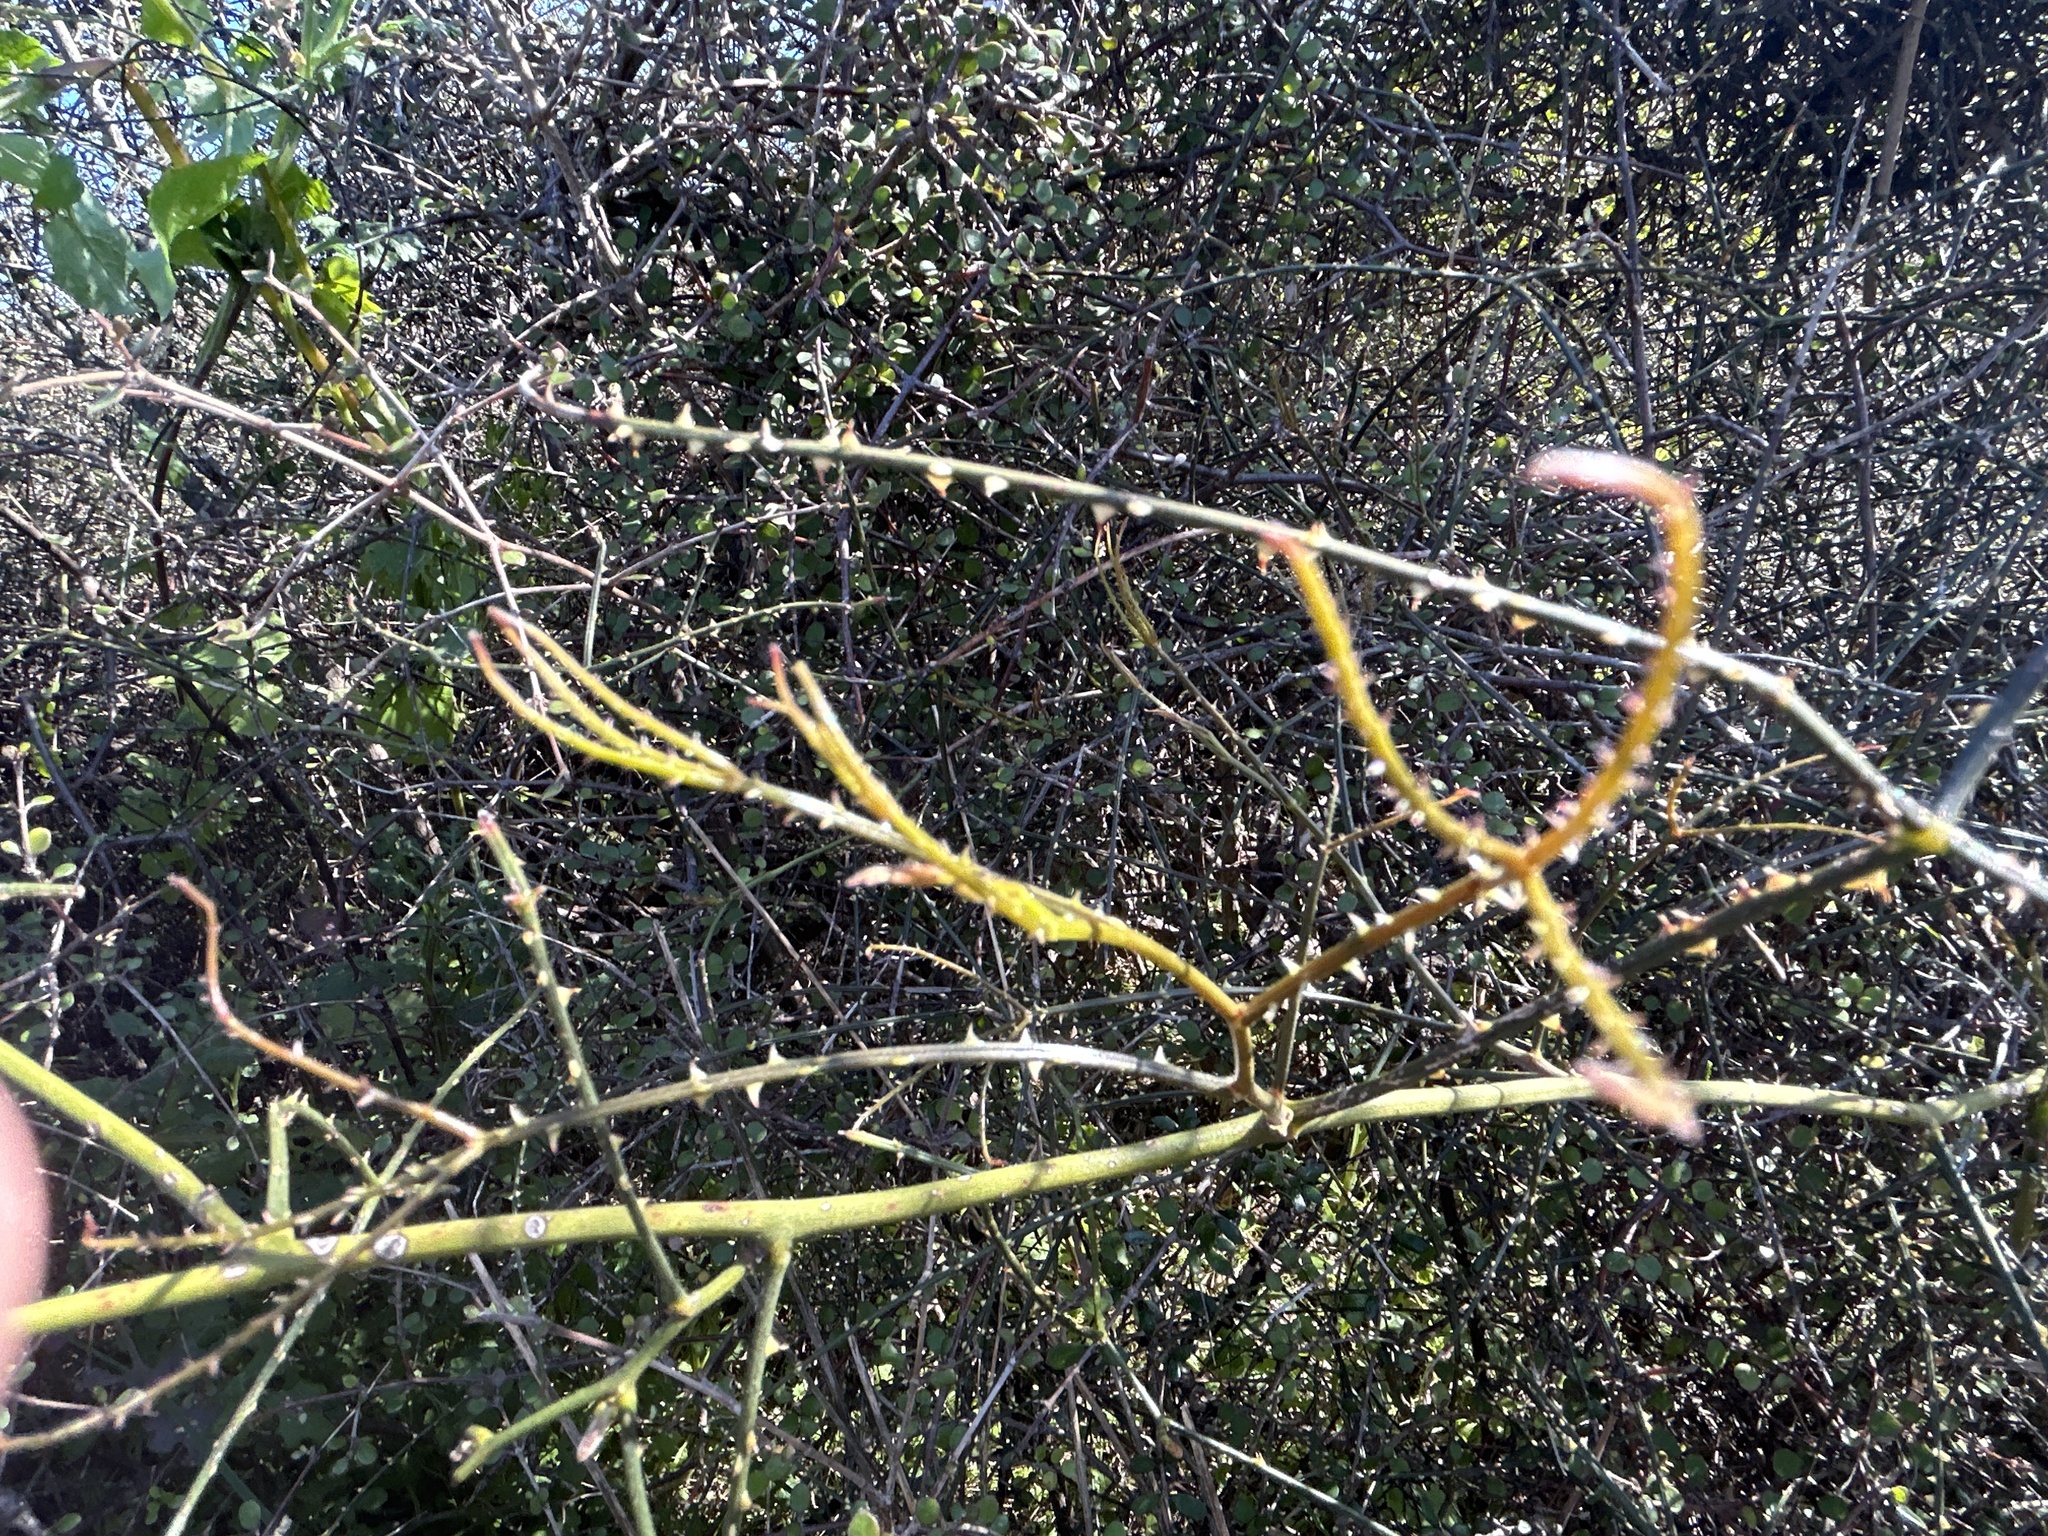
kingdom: Plantae
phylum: Tracheophyta
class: Magnoliopsida
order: Rosales
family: Rosaceae
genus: Rubus
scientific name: Rubus squarrosus
